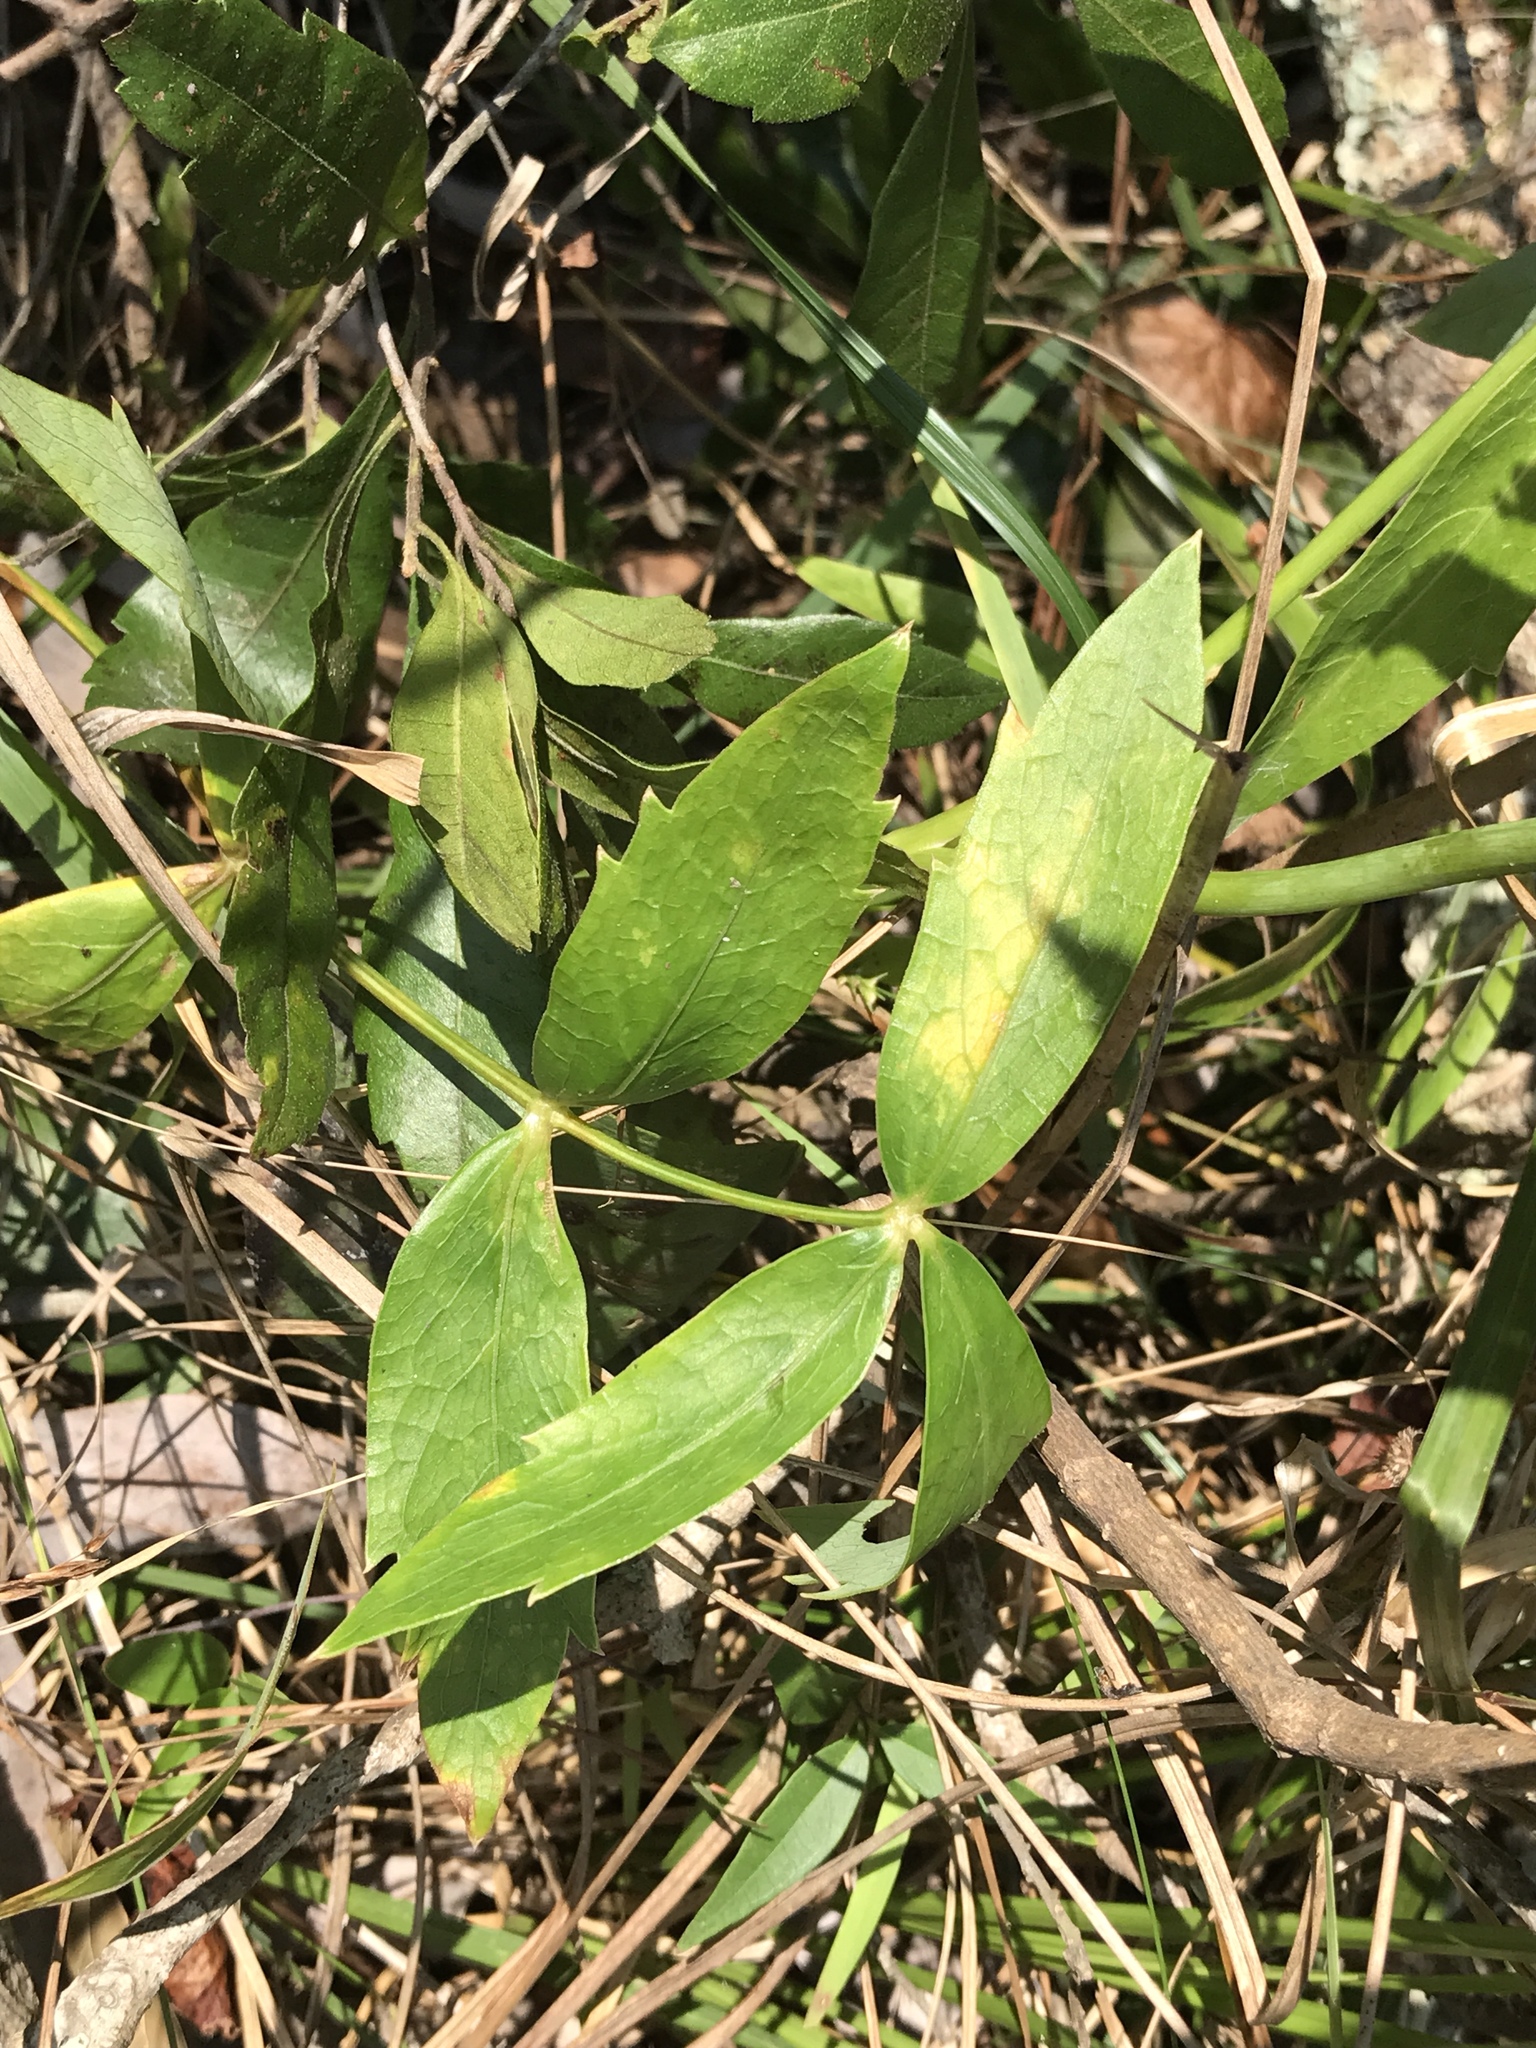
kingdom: Plantae
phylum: Tracheophyta
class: Magnoliopsida
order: Apiales
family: Apiaceae
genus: Oxypolis
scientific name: Oxypolis rigidior
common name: Cowbane
